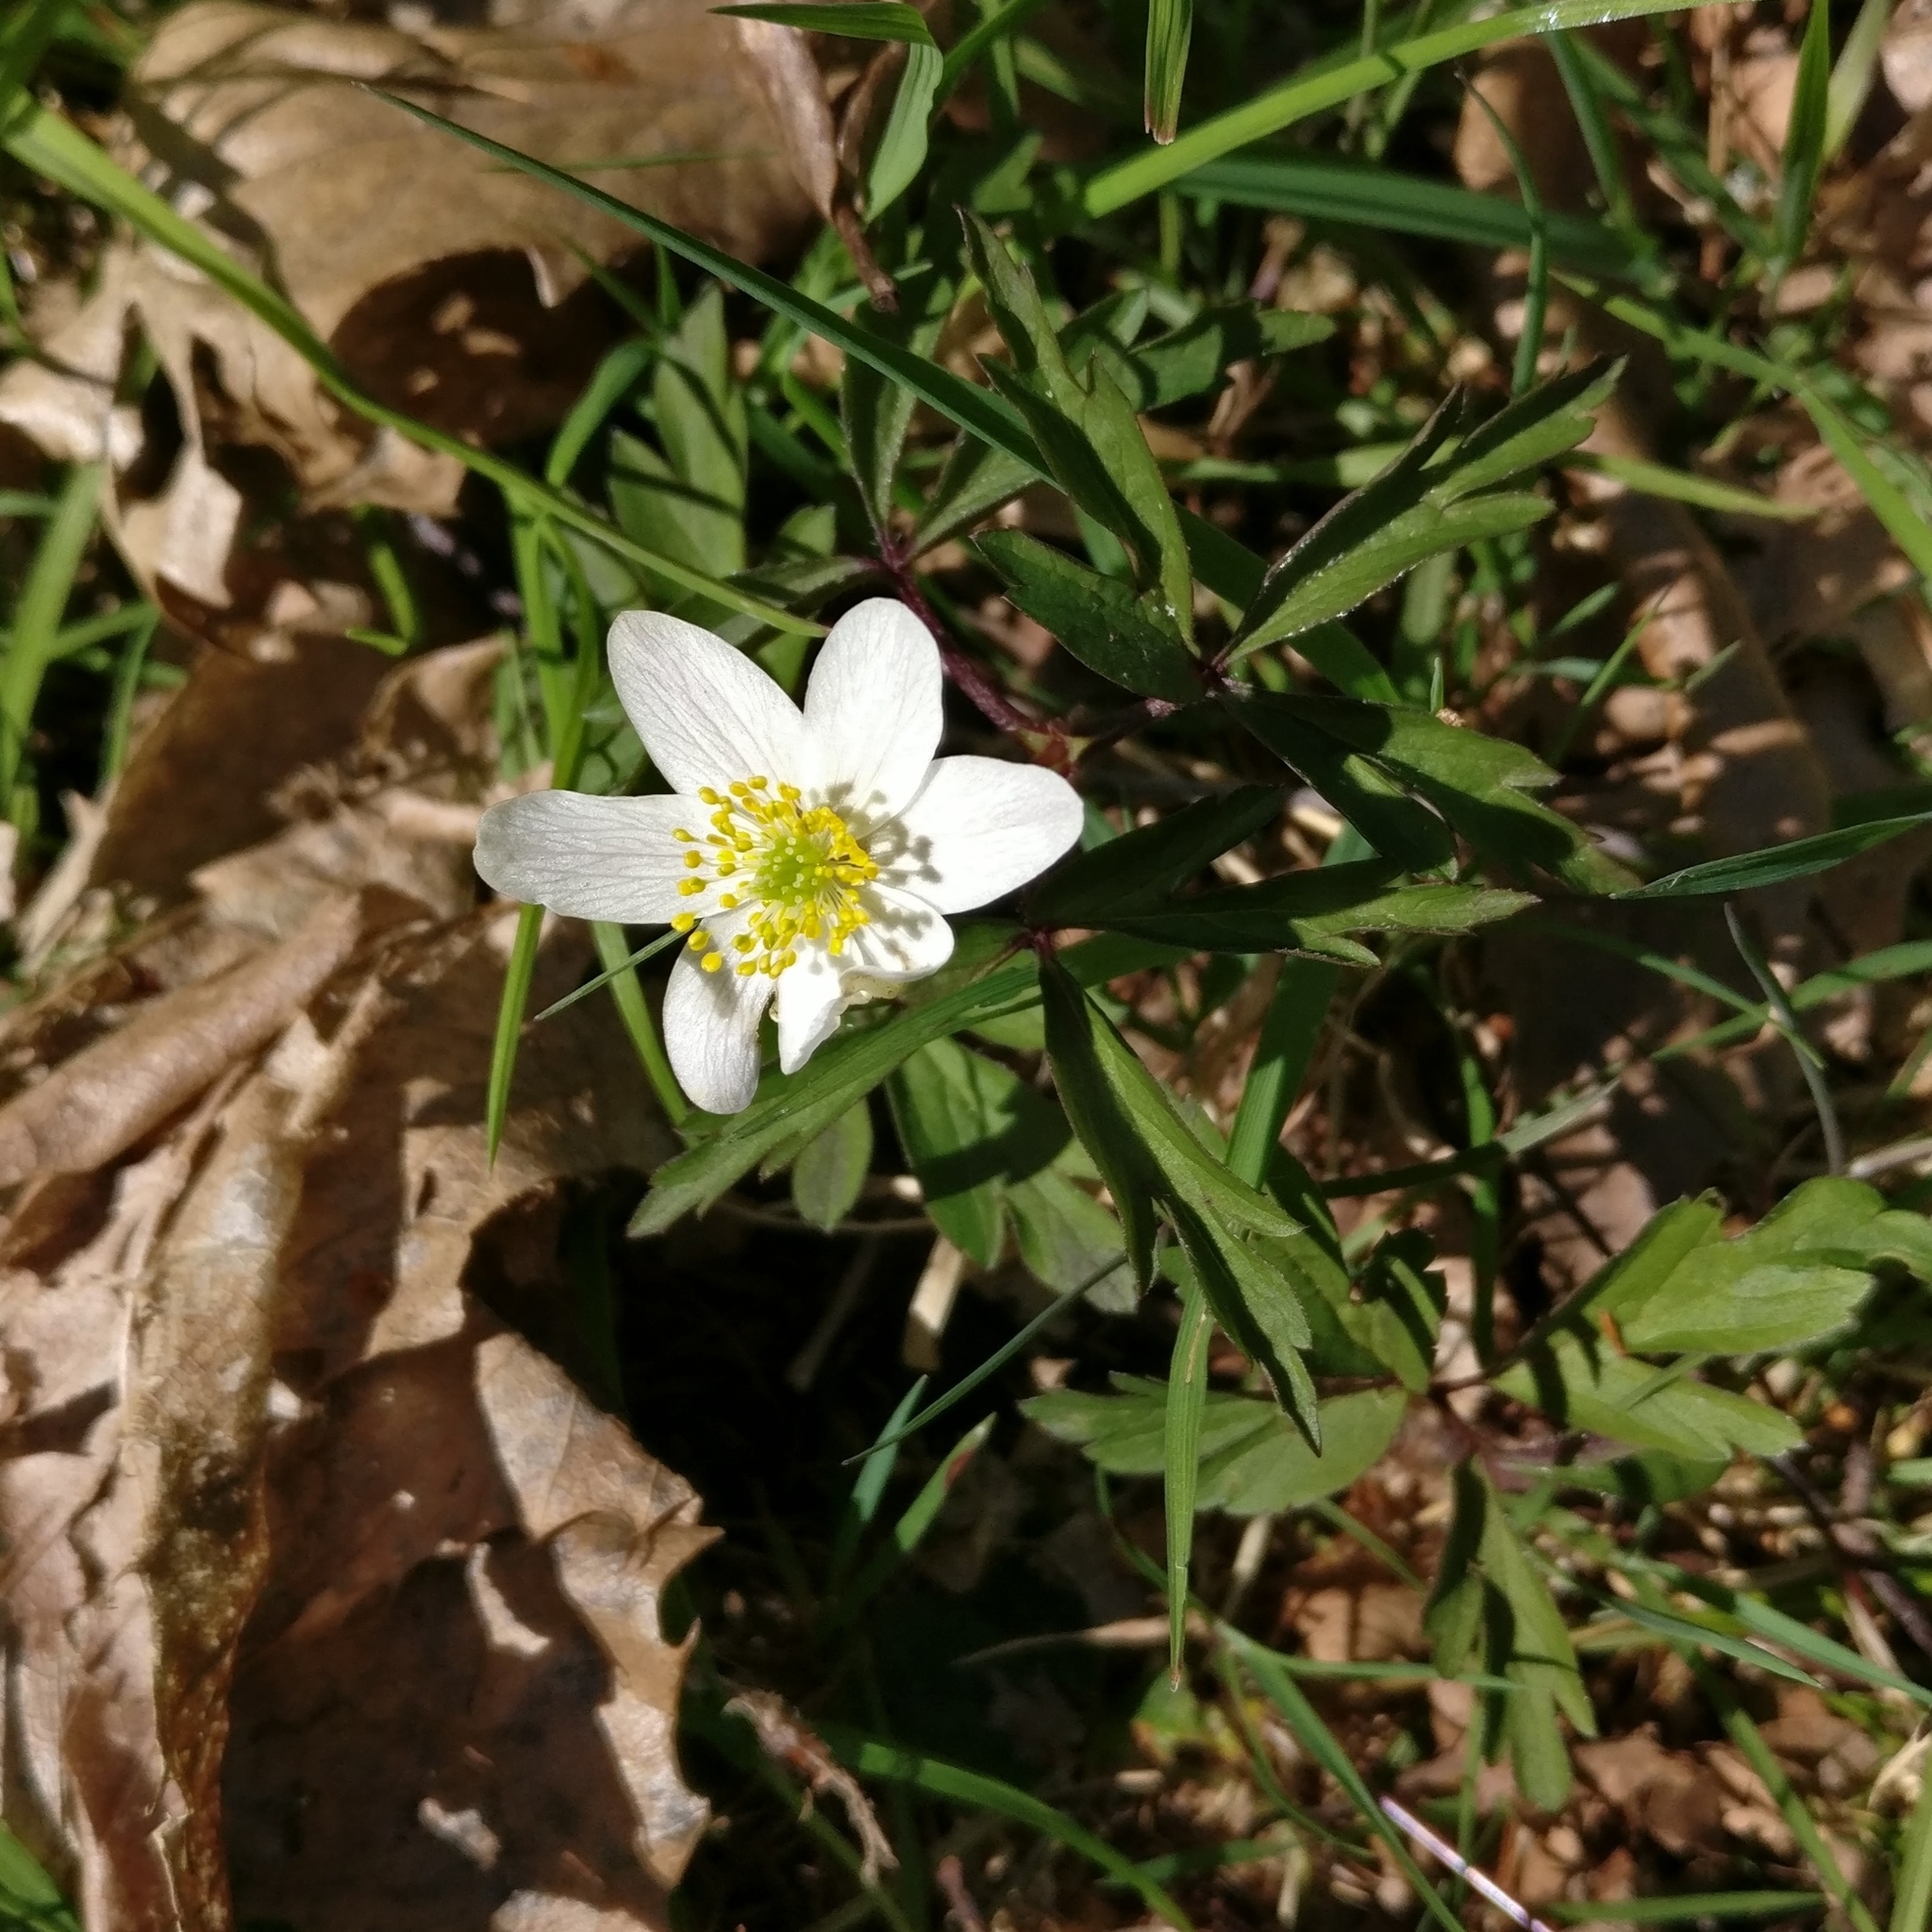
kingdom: Plantae
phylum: Tracheophyta
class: Magnoliopsida
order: Ranunculales
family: Ranunculaceae
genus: Anemone
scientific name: Anemone nemorosa
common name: Wood anemone
